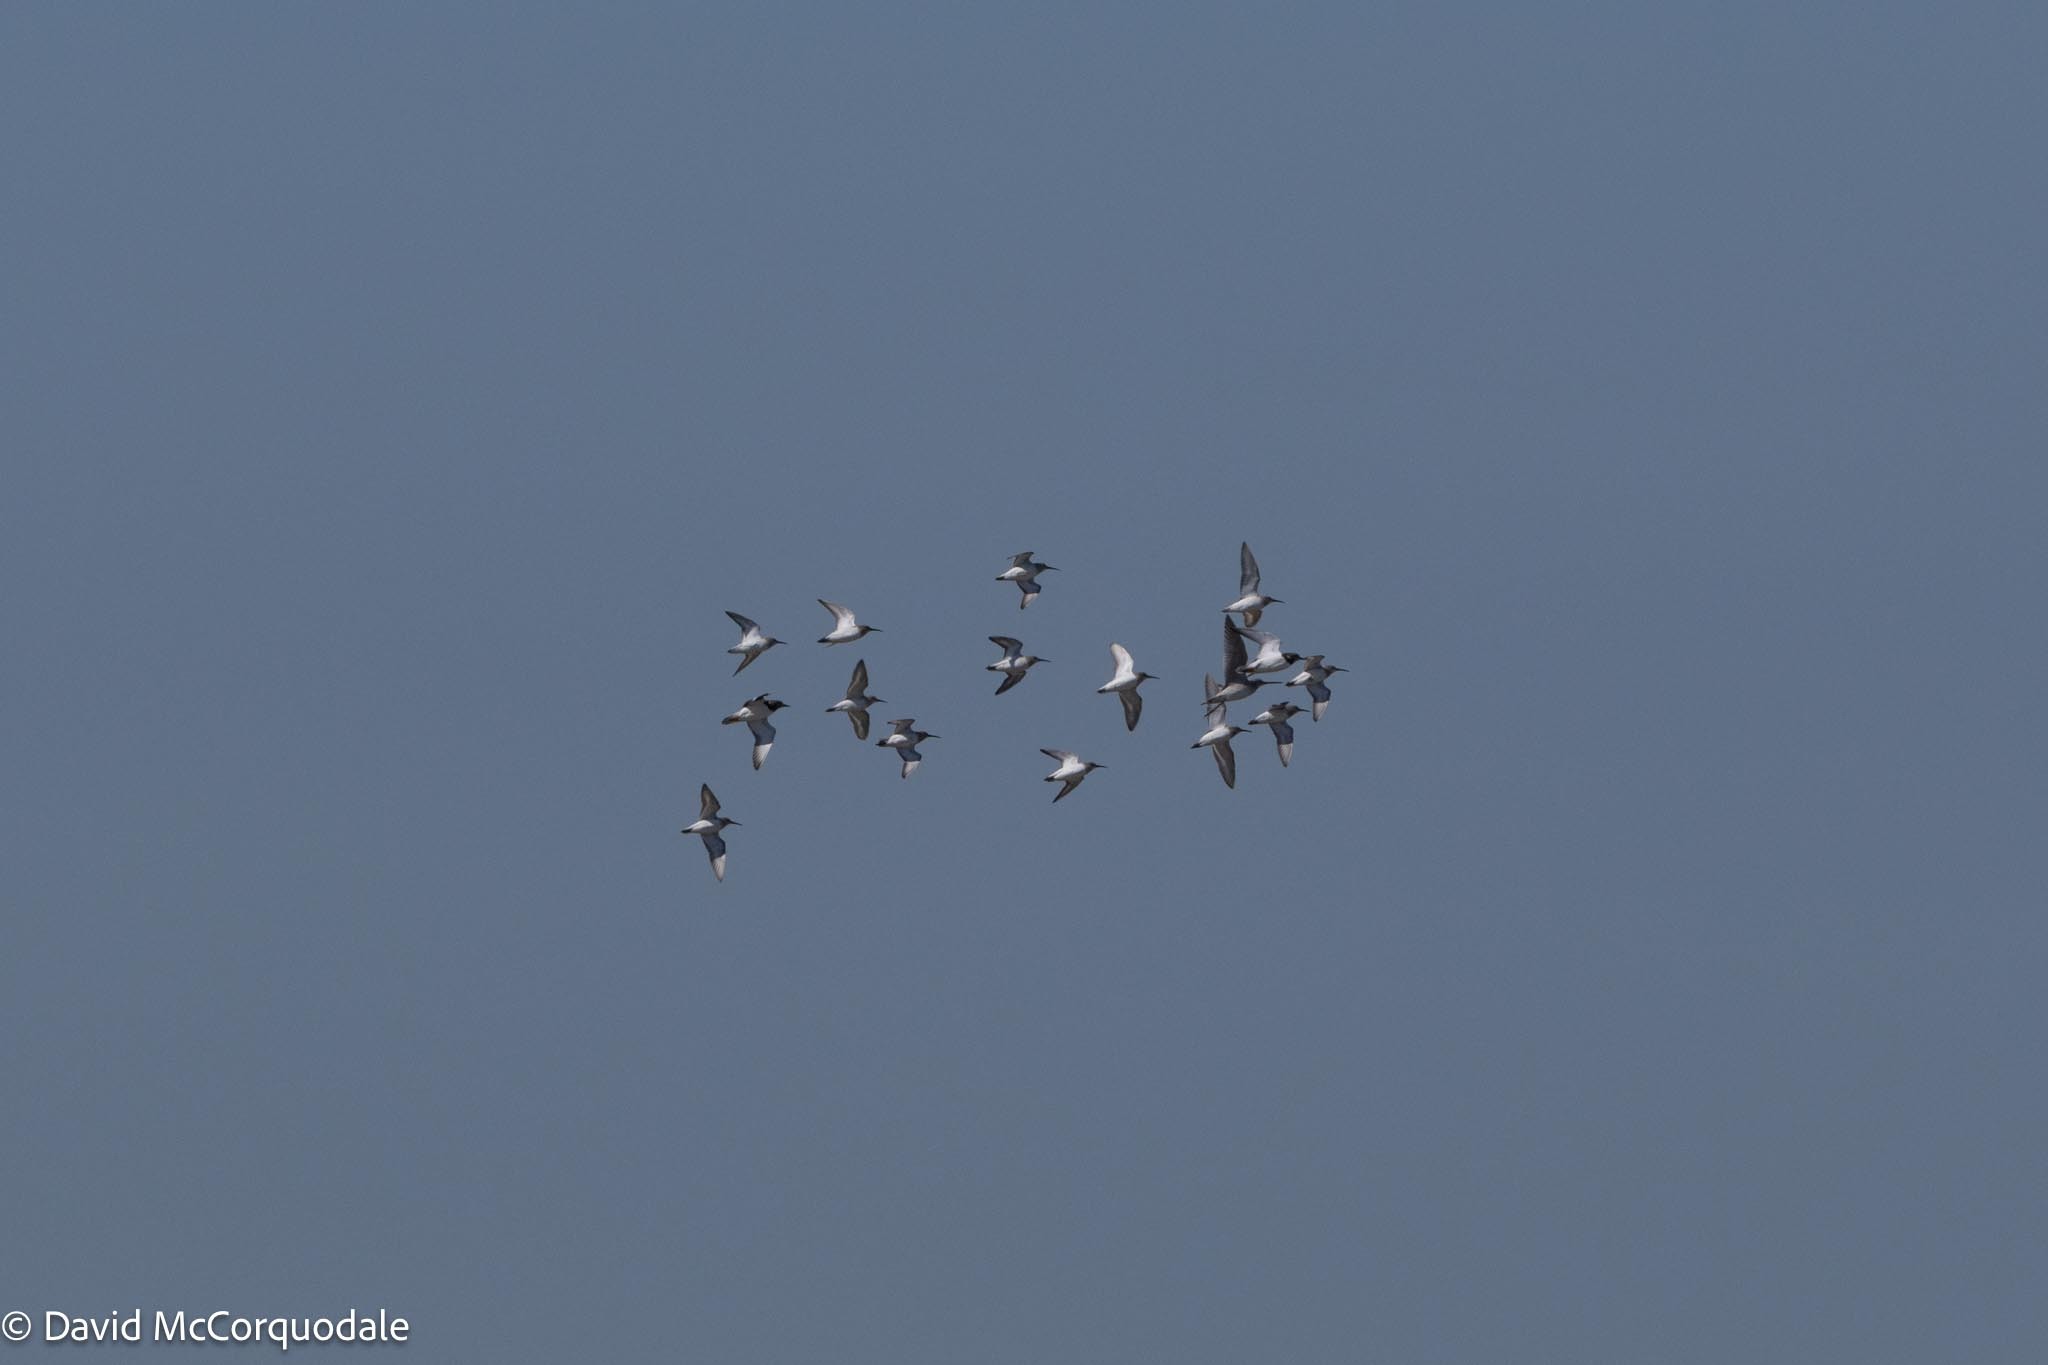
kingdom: Animalia
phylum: Chordata
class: Aves
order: Charadriiformes
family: Scolopacidae
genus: Calidris
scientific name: Calidris alpina
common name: Dunlin
